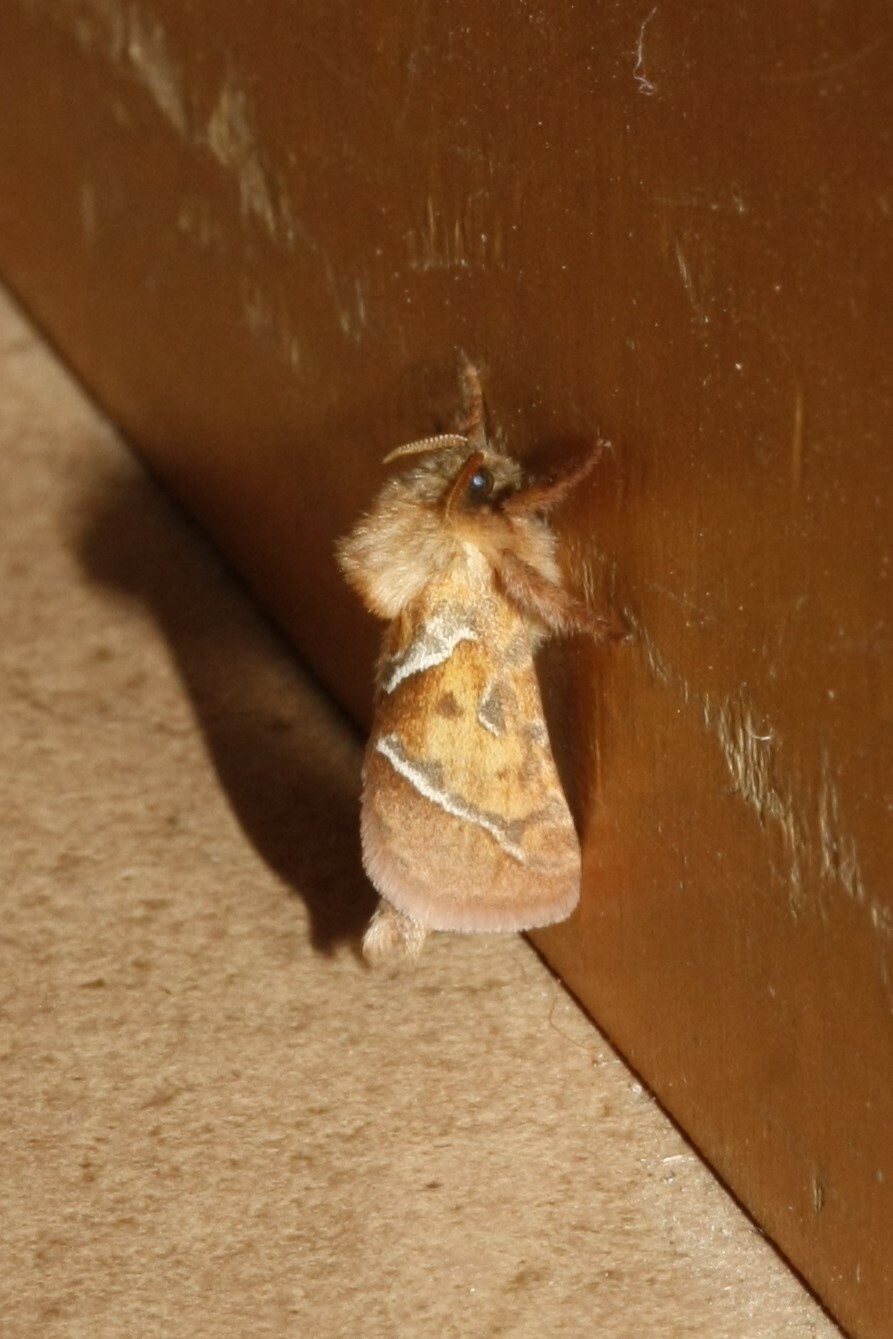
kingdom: Animalia
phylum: Arthropoda
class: Insecta
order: Lepidoptera
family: Hepialidae
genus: Triodia
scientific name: Triodia sylvina
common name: Orange swift
